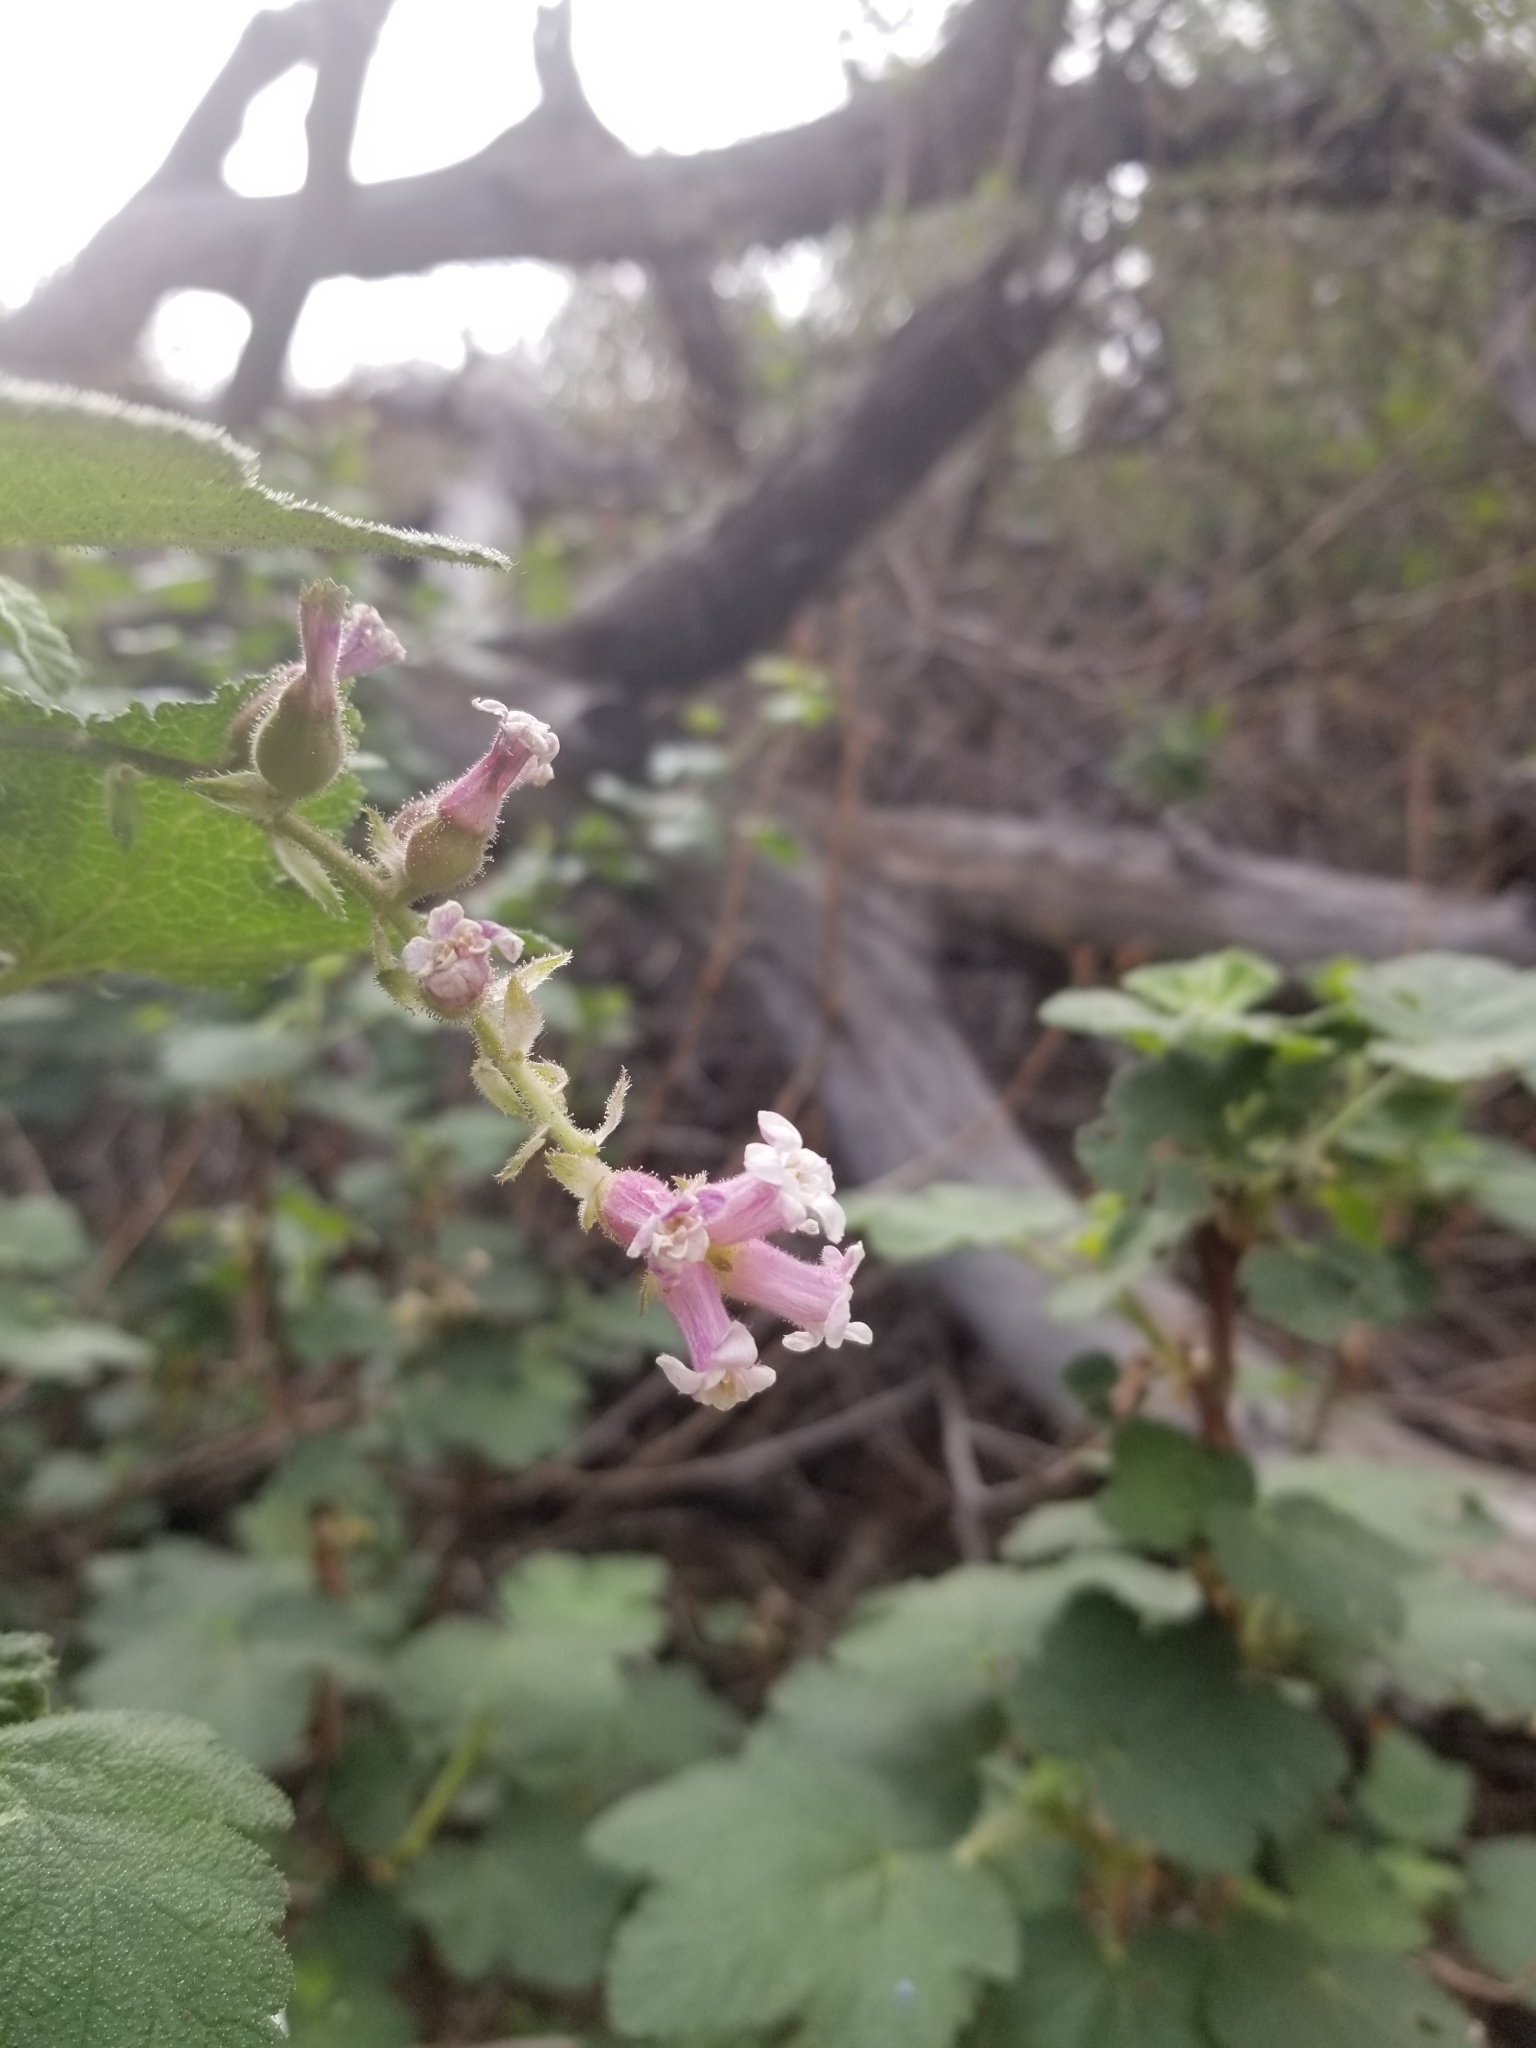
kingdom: Plantae
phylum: Tracheophyta
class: Magnoliopsida
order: Saxifragales
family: Grossulariaceae
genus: Ribes
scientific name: Ribes malvaceum
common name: Chaparral currant
